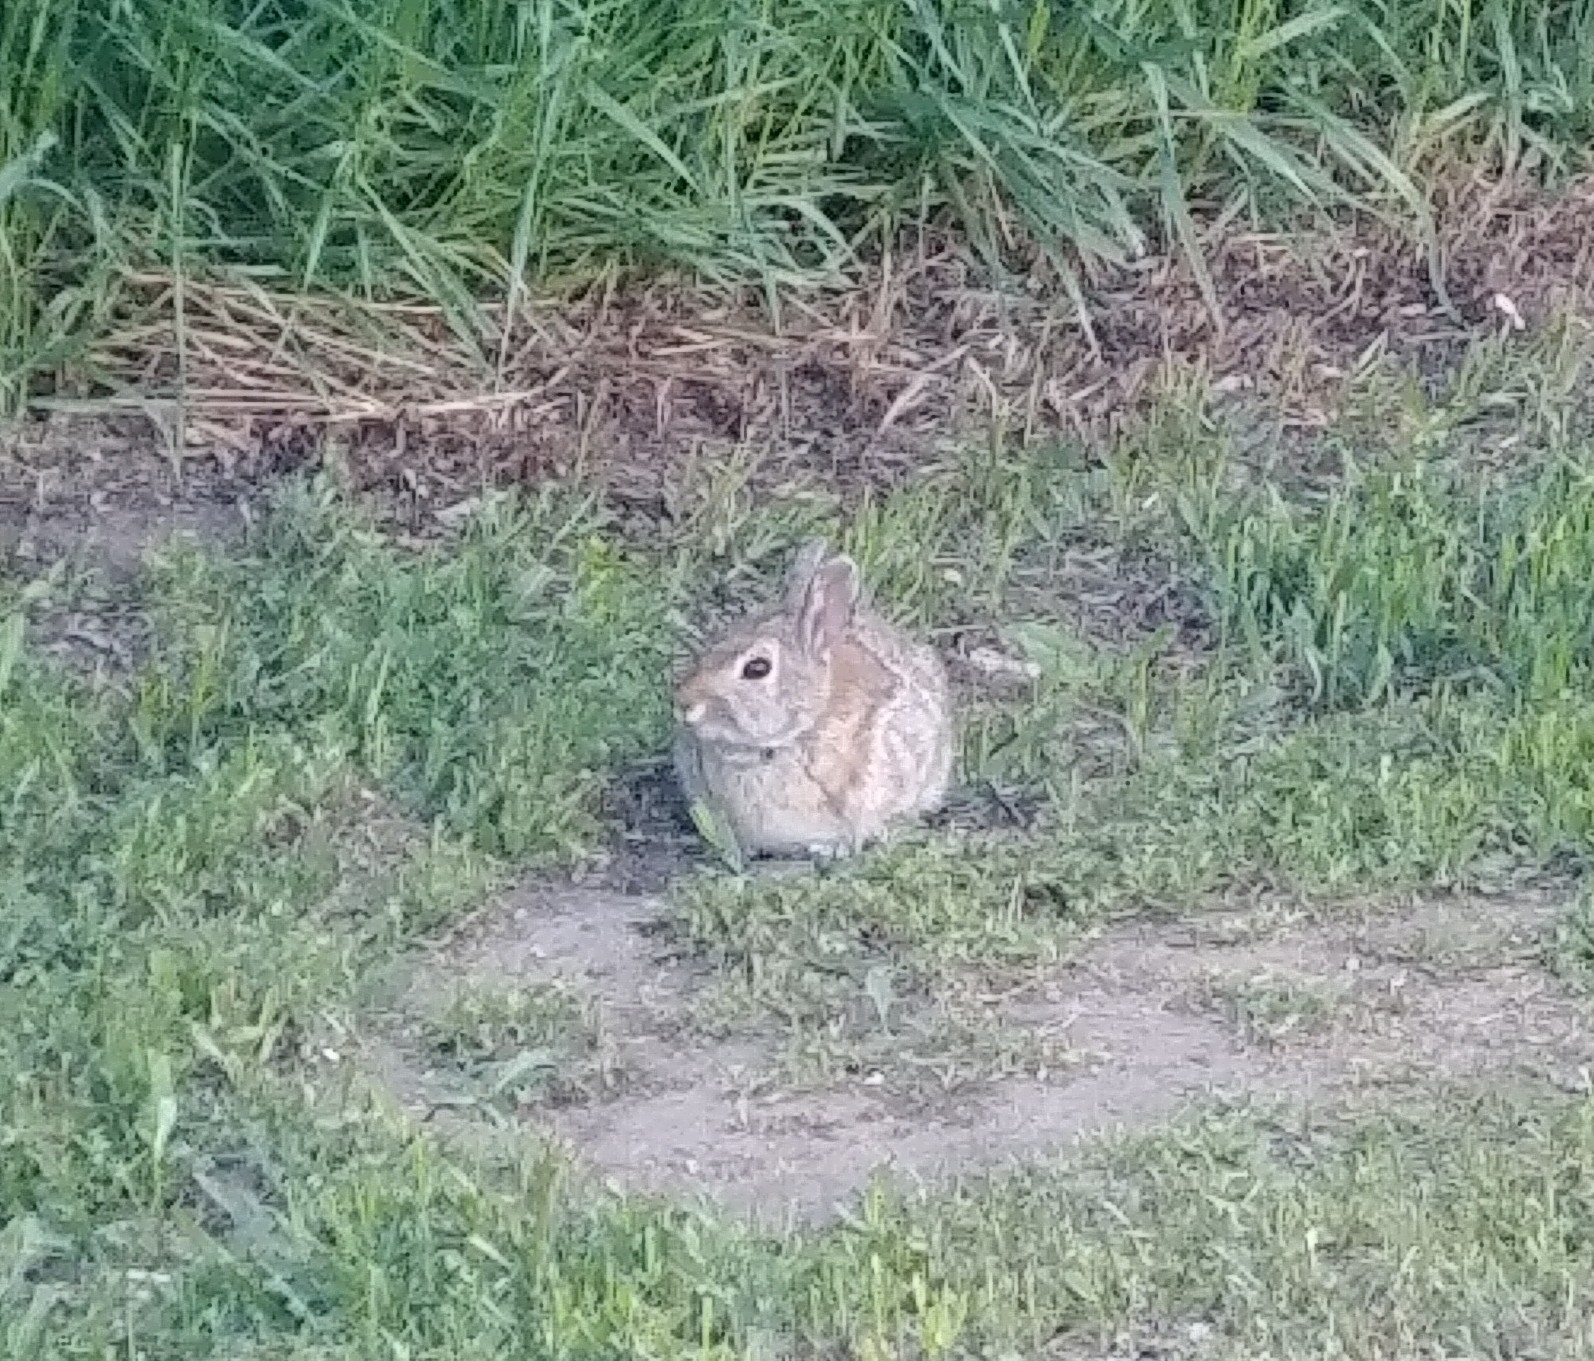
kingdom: Animalia
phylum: Chordata
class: Mammalia
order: Lagomorpha
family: Leporidae
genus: Sylvilagus
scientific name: Sylvilagus nuttallii
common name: Mountain cottontail
